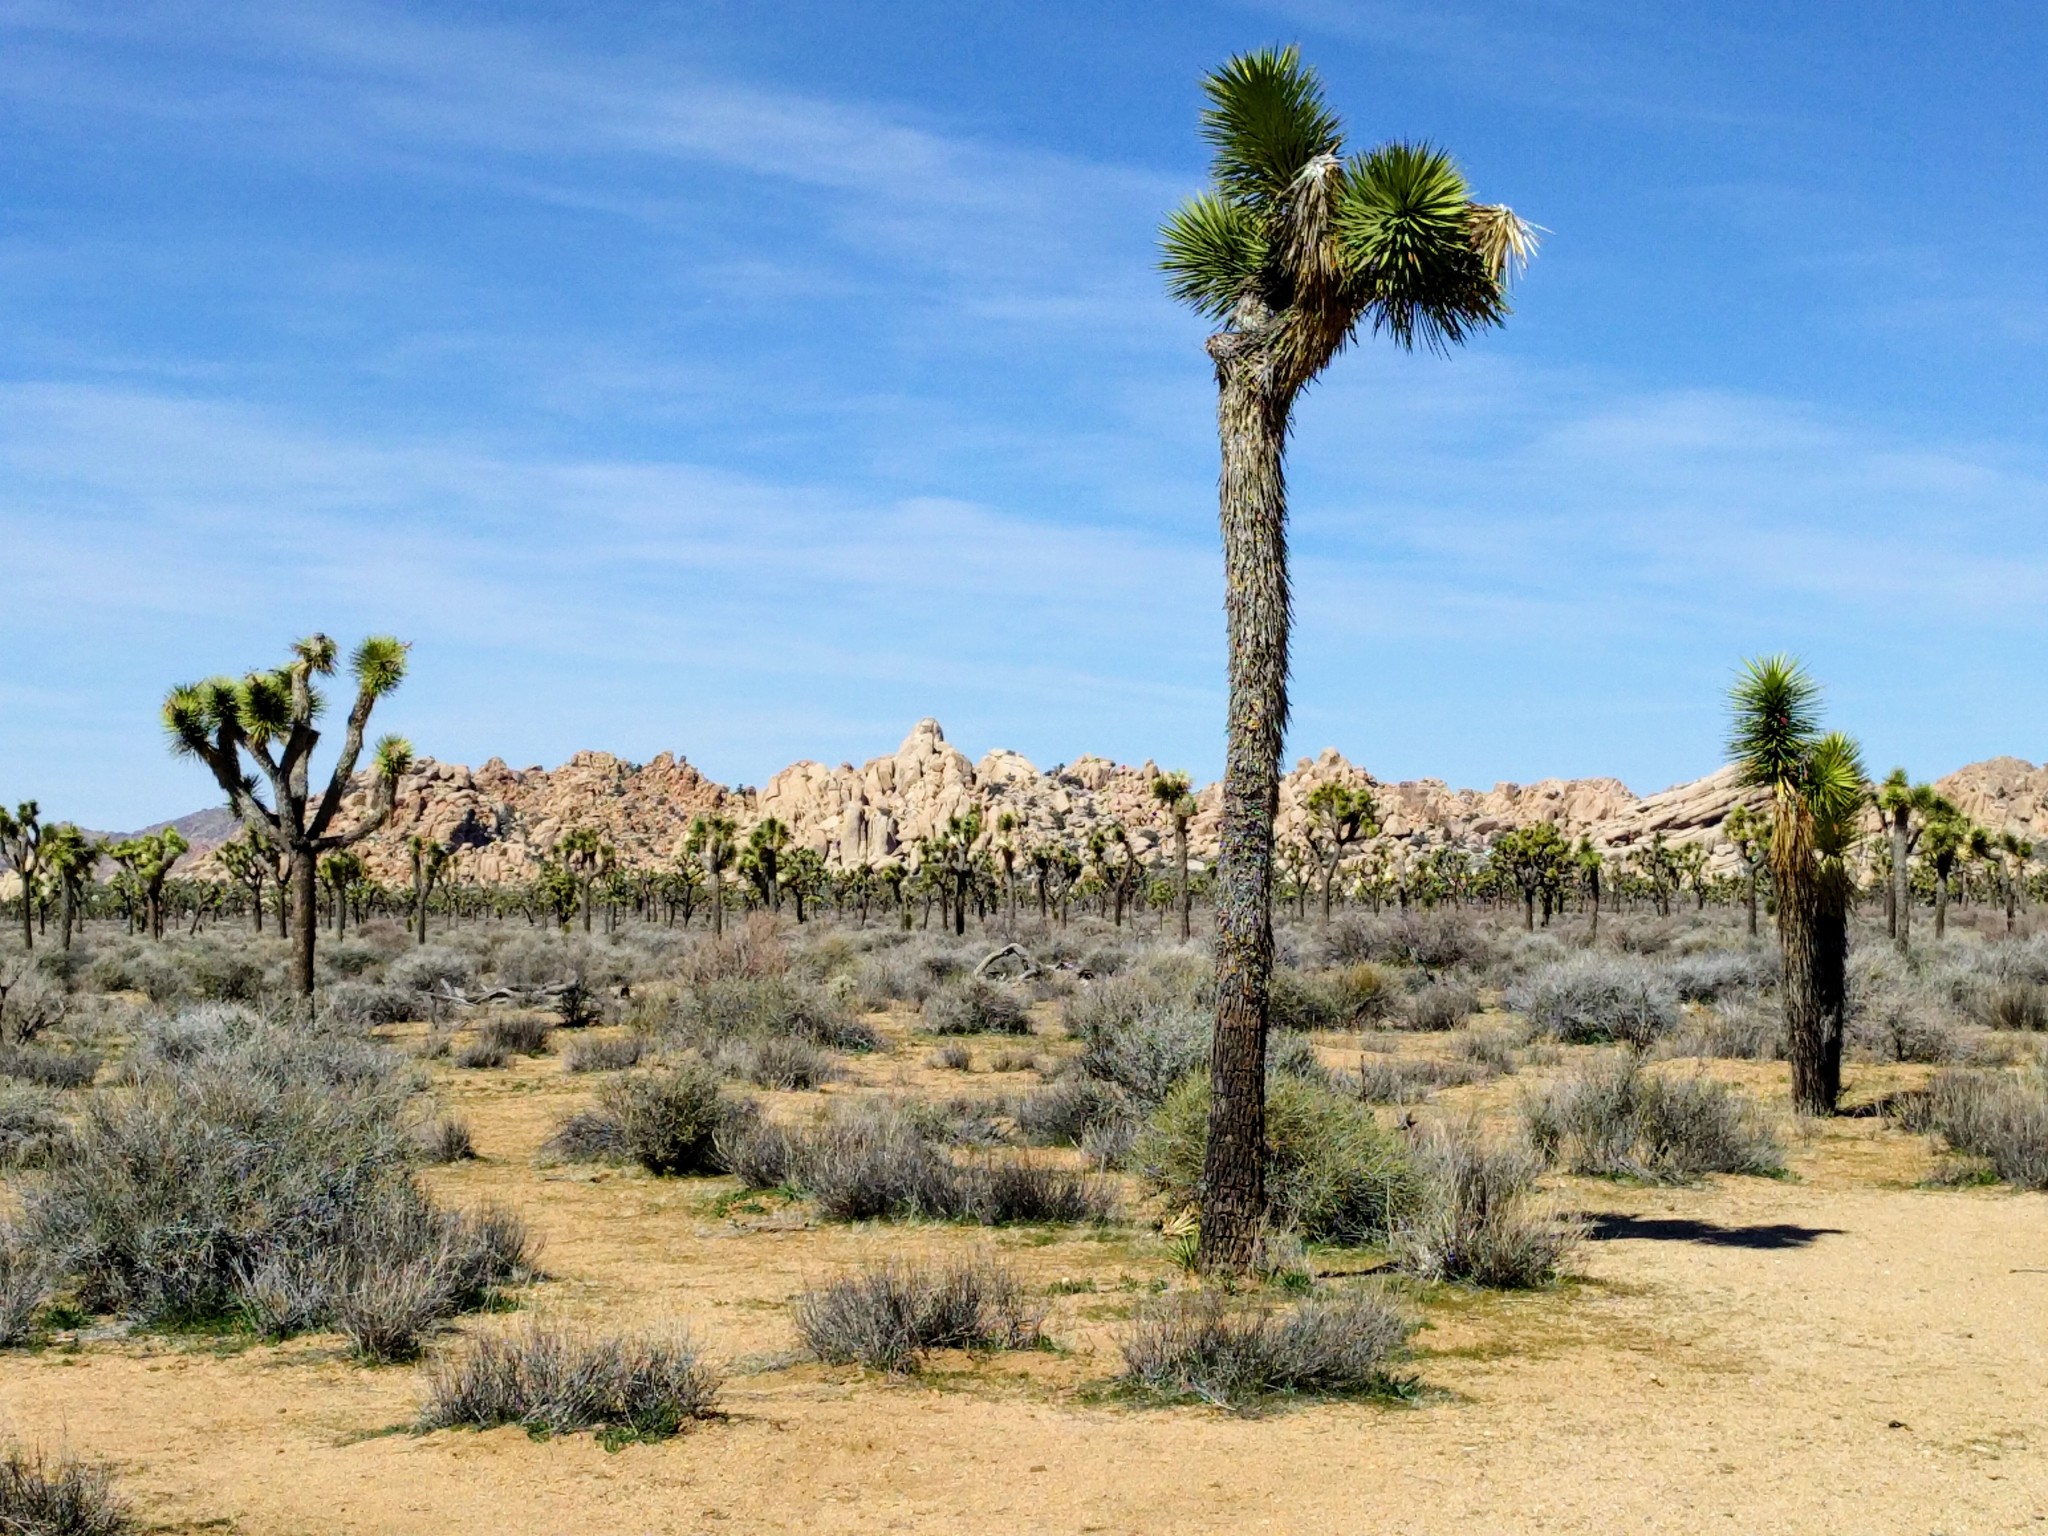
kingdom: Plantae
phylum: Tracheophyta
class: Liliopsida
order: Asparagales
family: Asparagaceae
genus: Yucca
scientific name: Yucca brevifolia
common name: Joshua tree
